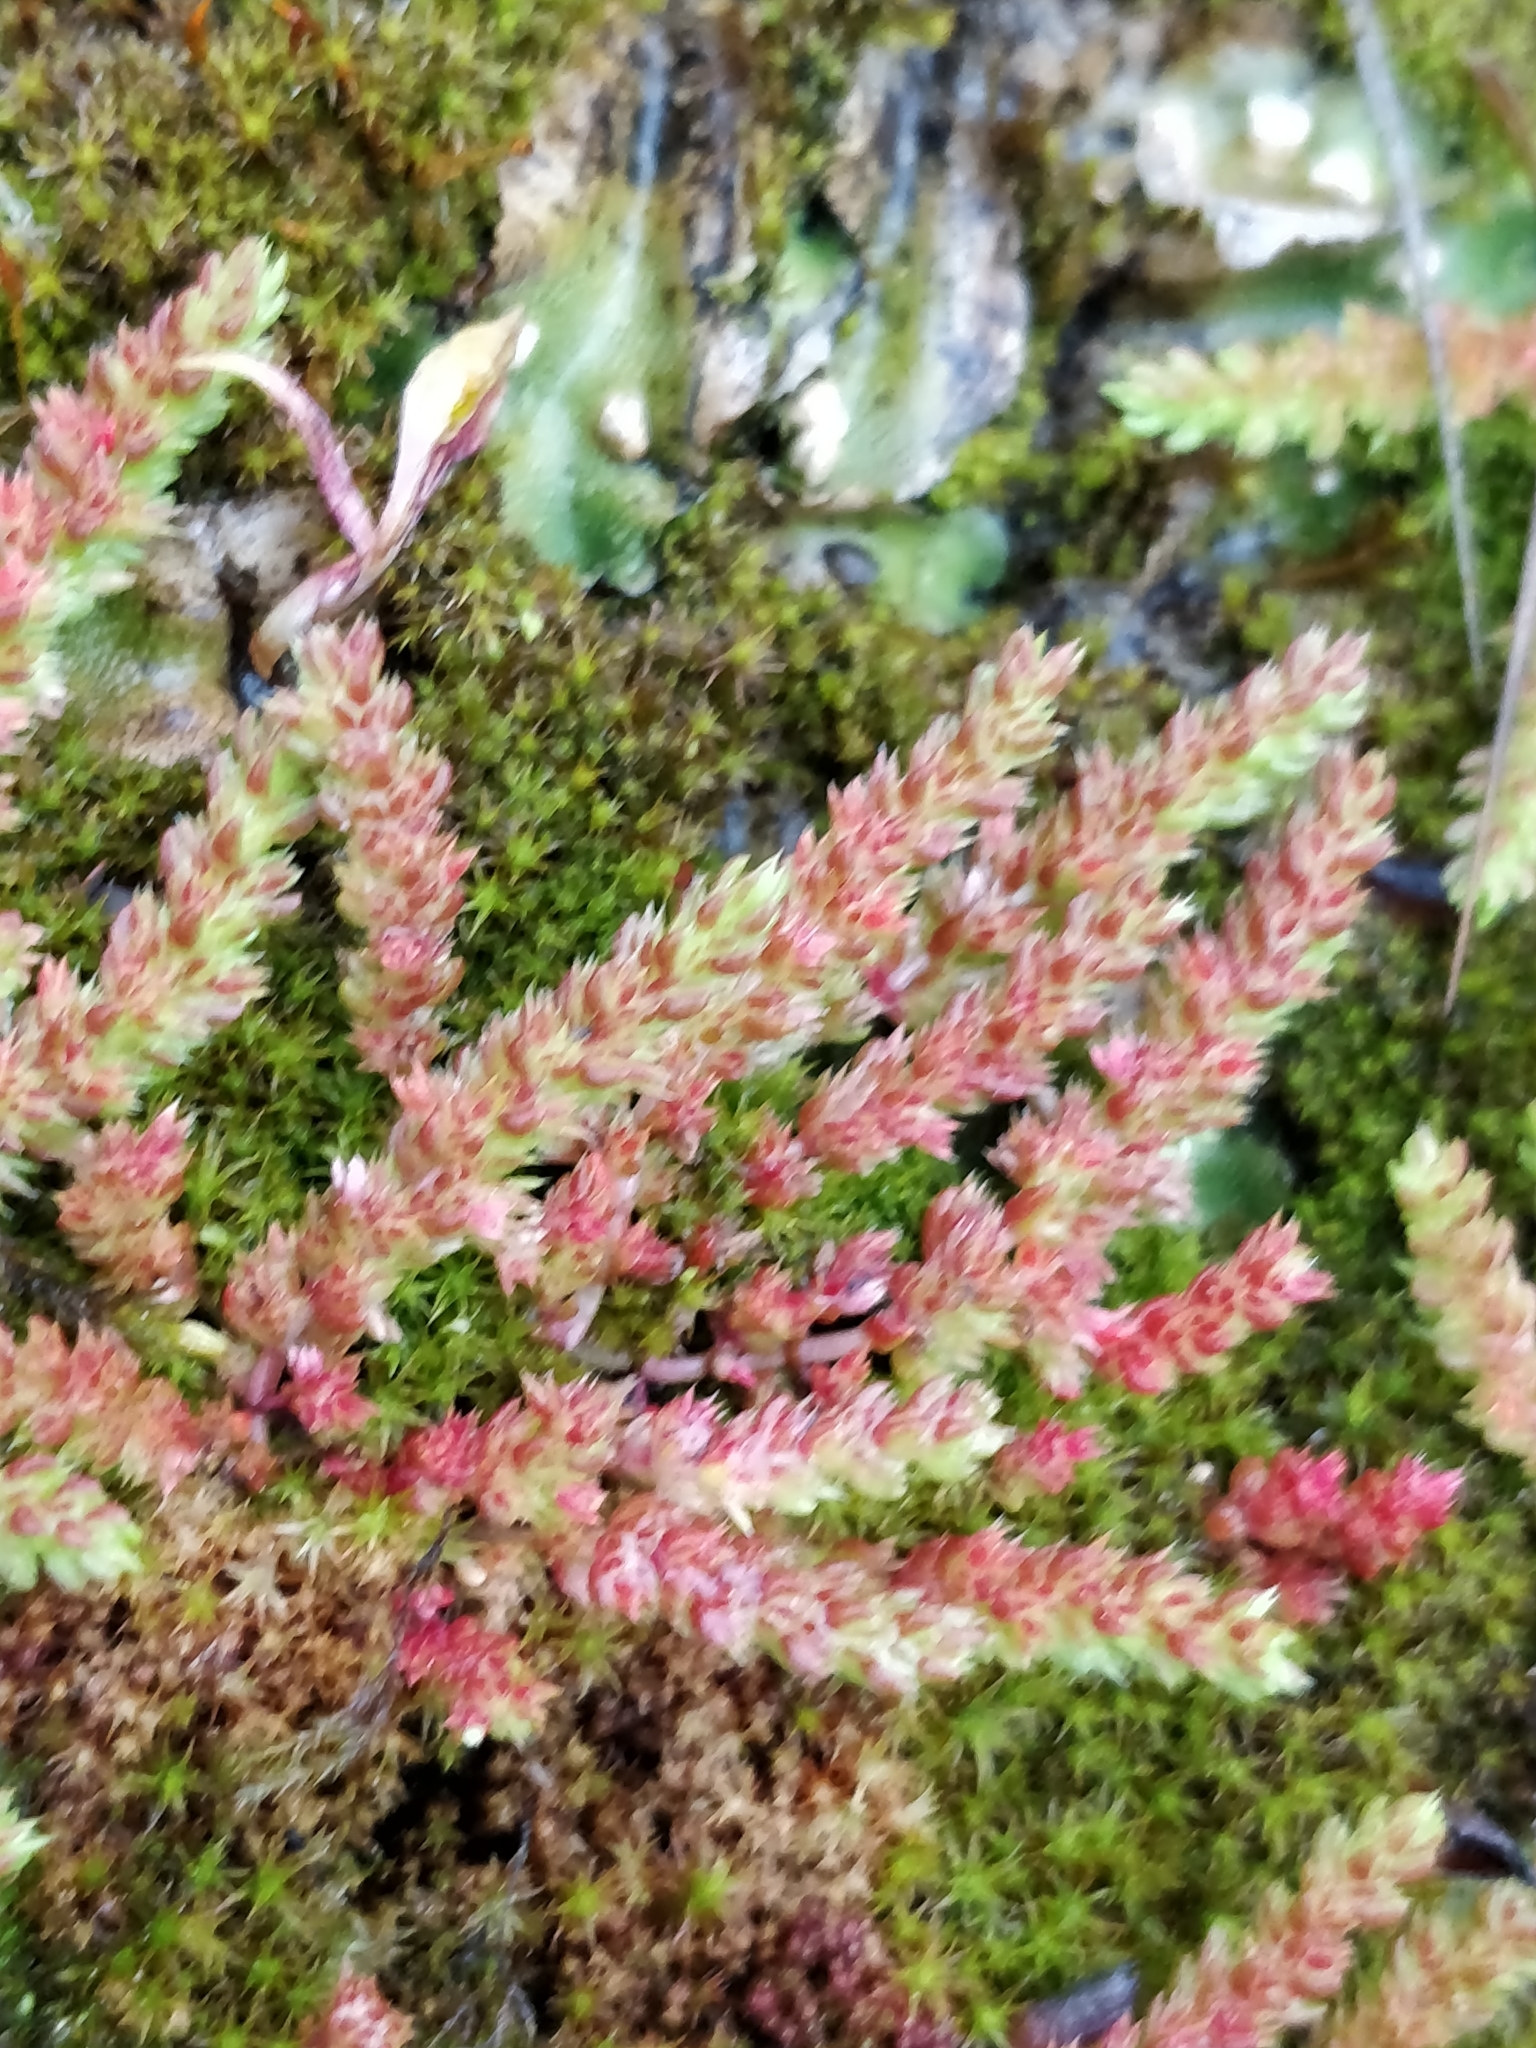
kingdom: Plantae
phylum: Tracheophyta
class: Magnoliopsida
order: Saxifragales
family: Crassulaceae
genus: Crassula
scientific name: Crassula tillaea
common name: Mossy stonecrop
